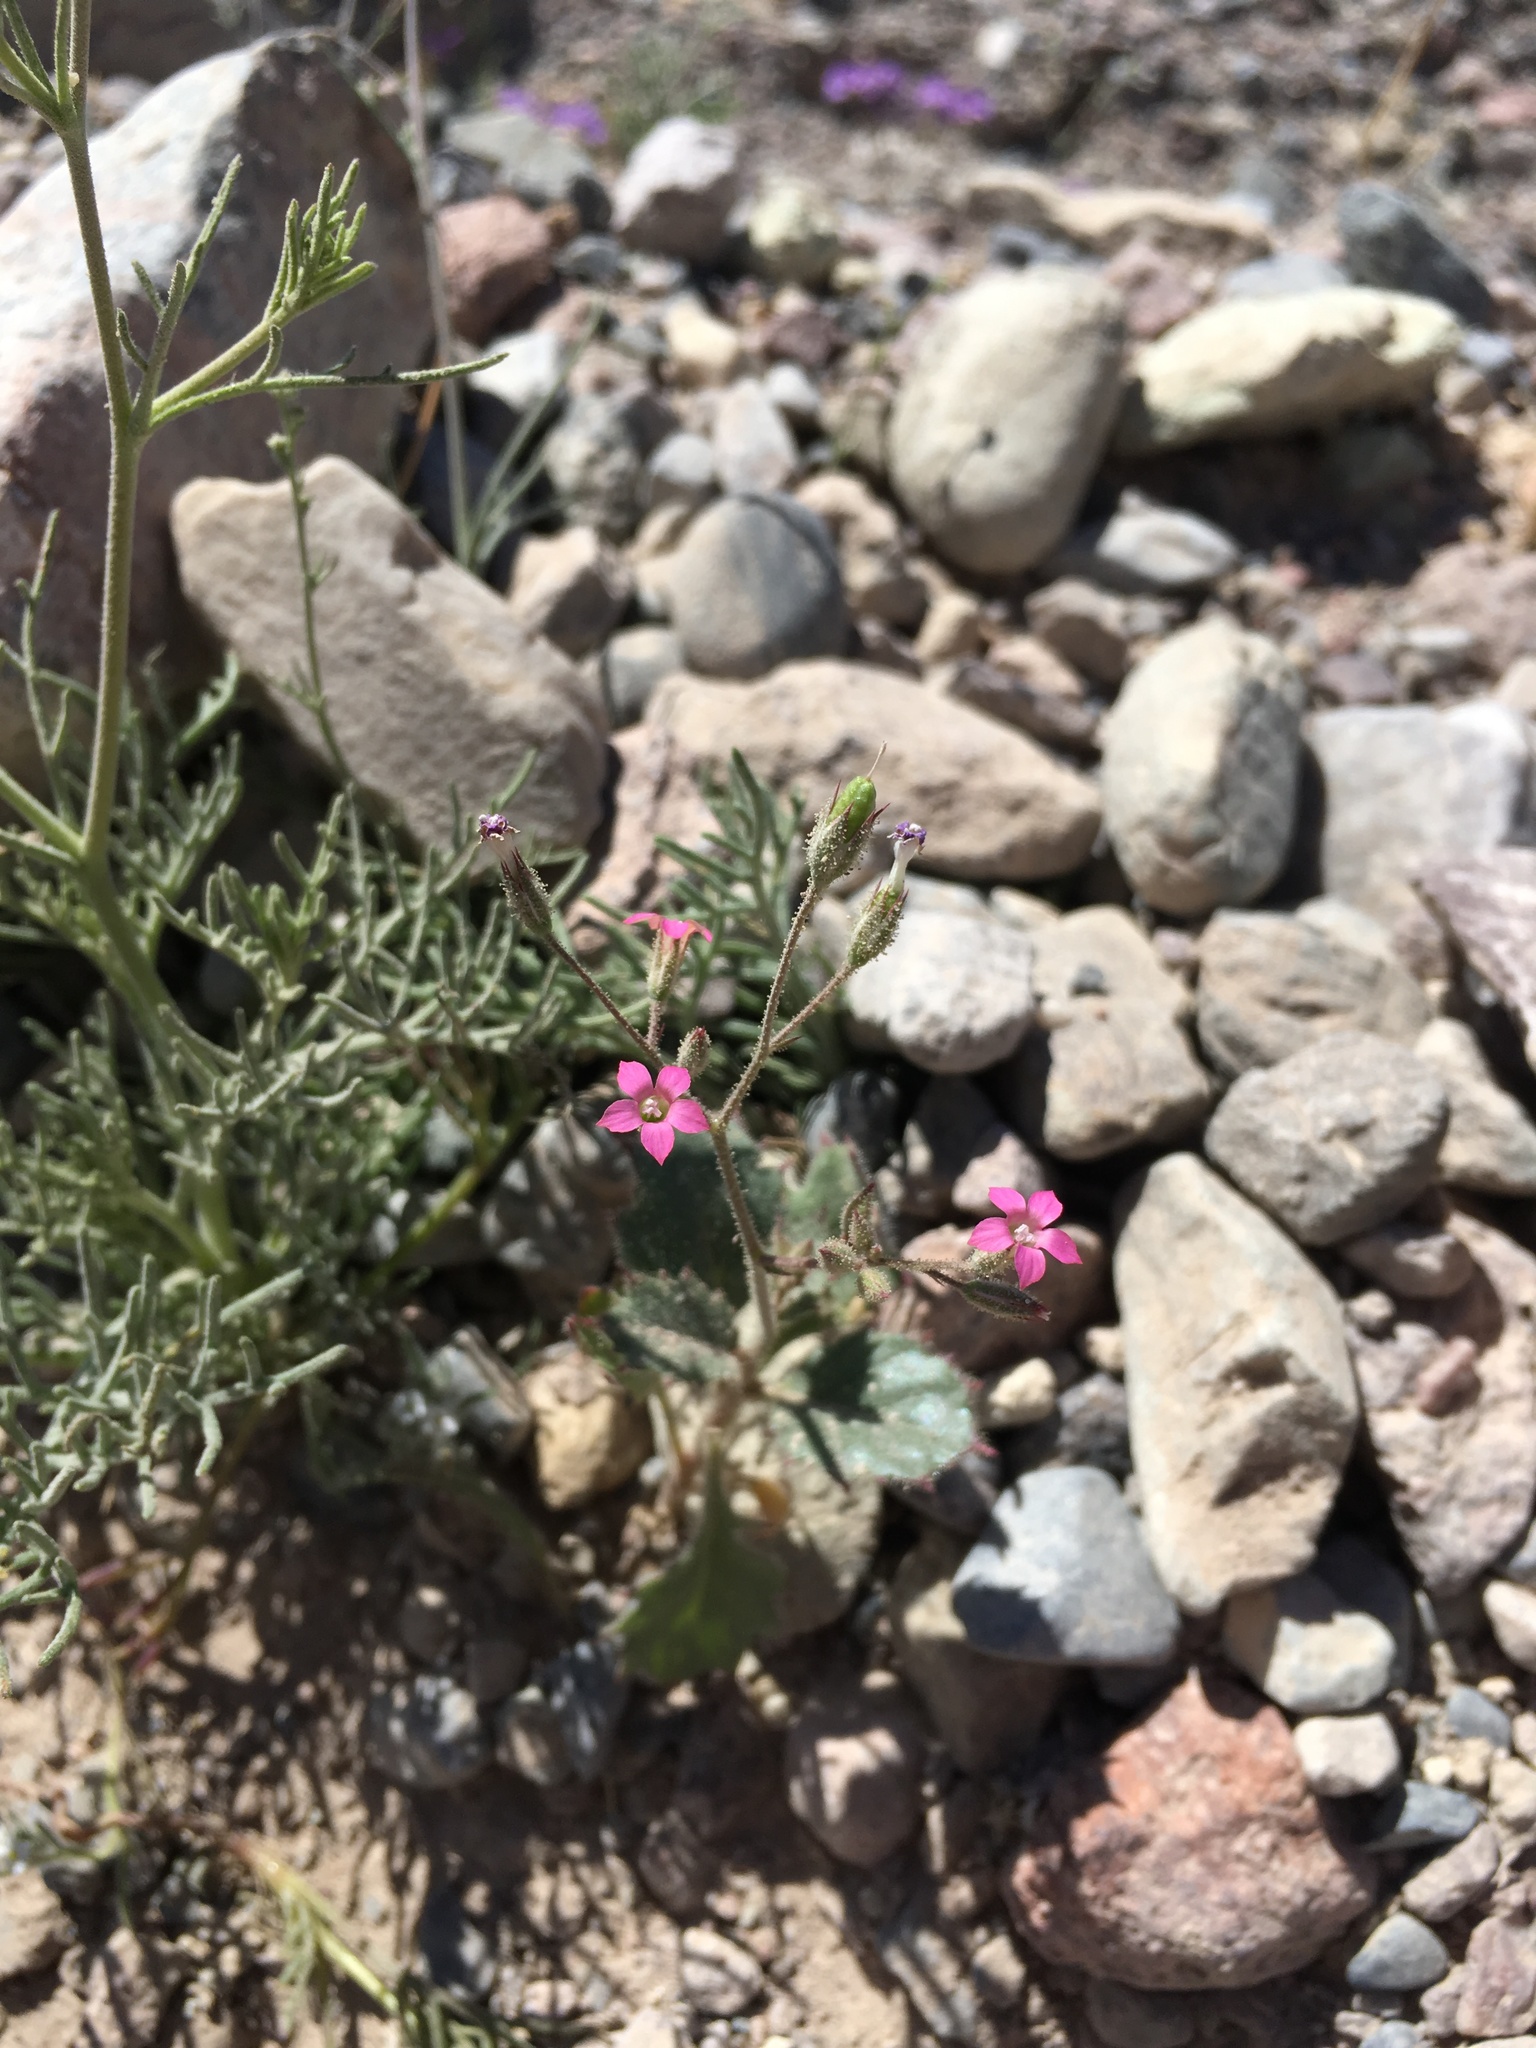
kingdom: Plantae
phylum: Tracheophyta
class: Magnoliopsida
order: Ericales
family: Polemoniaceae
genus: Aliciella
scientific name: Aliciella latifolia
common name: Broad-leaf gilia
